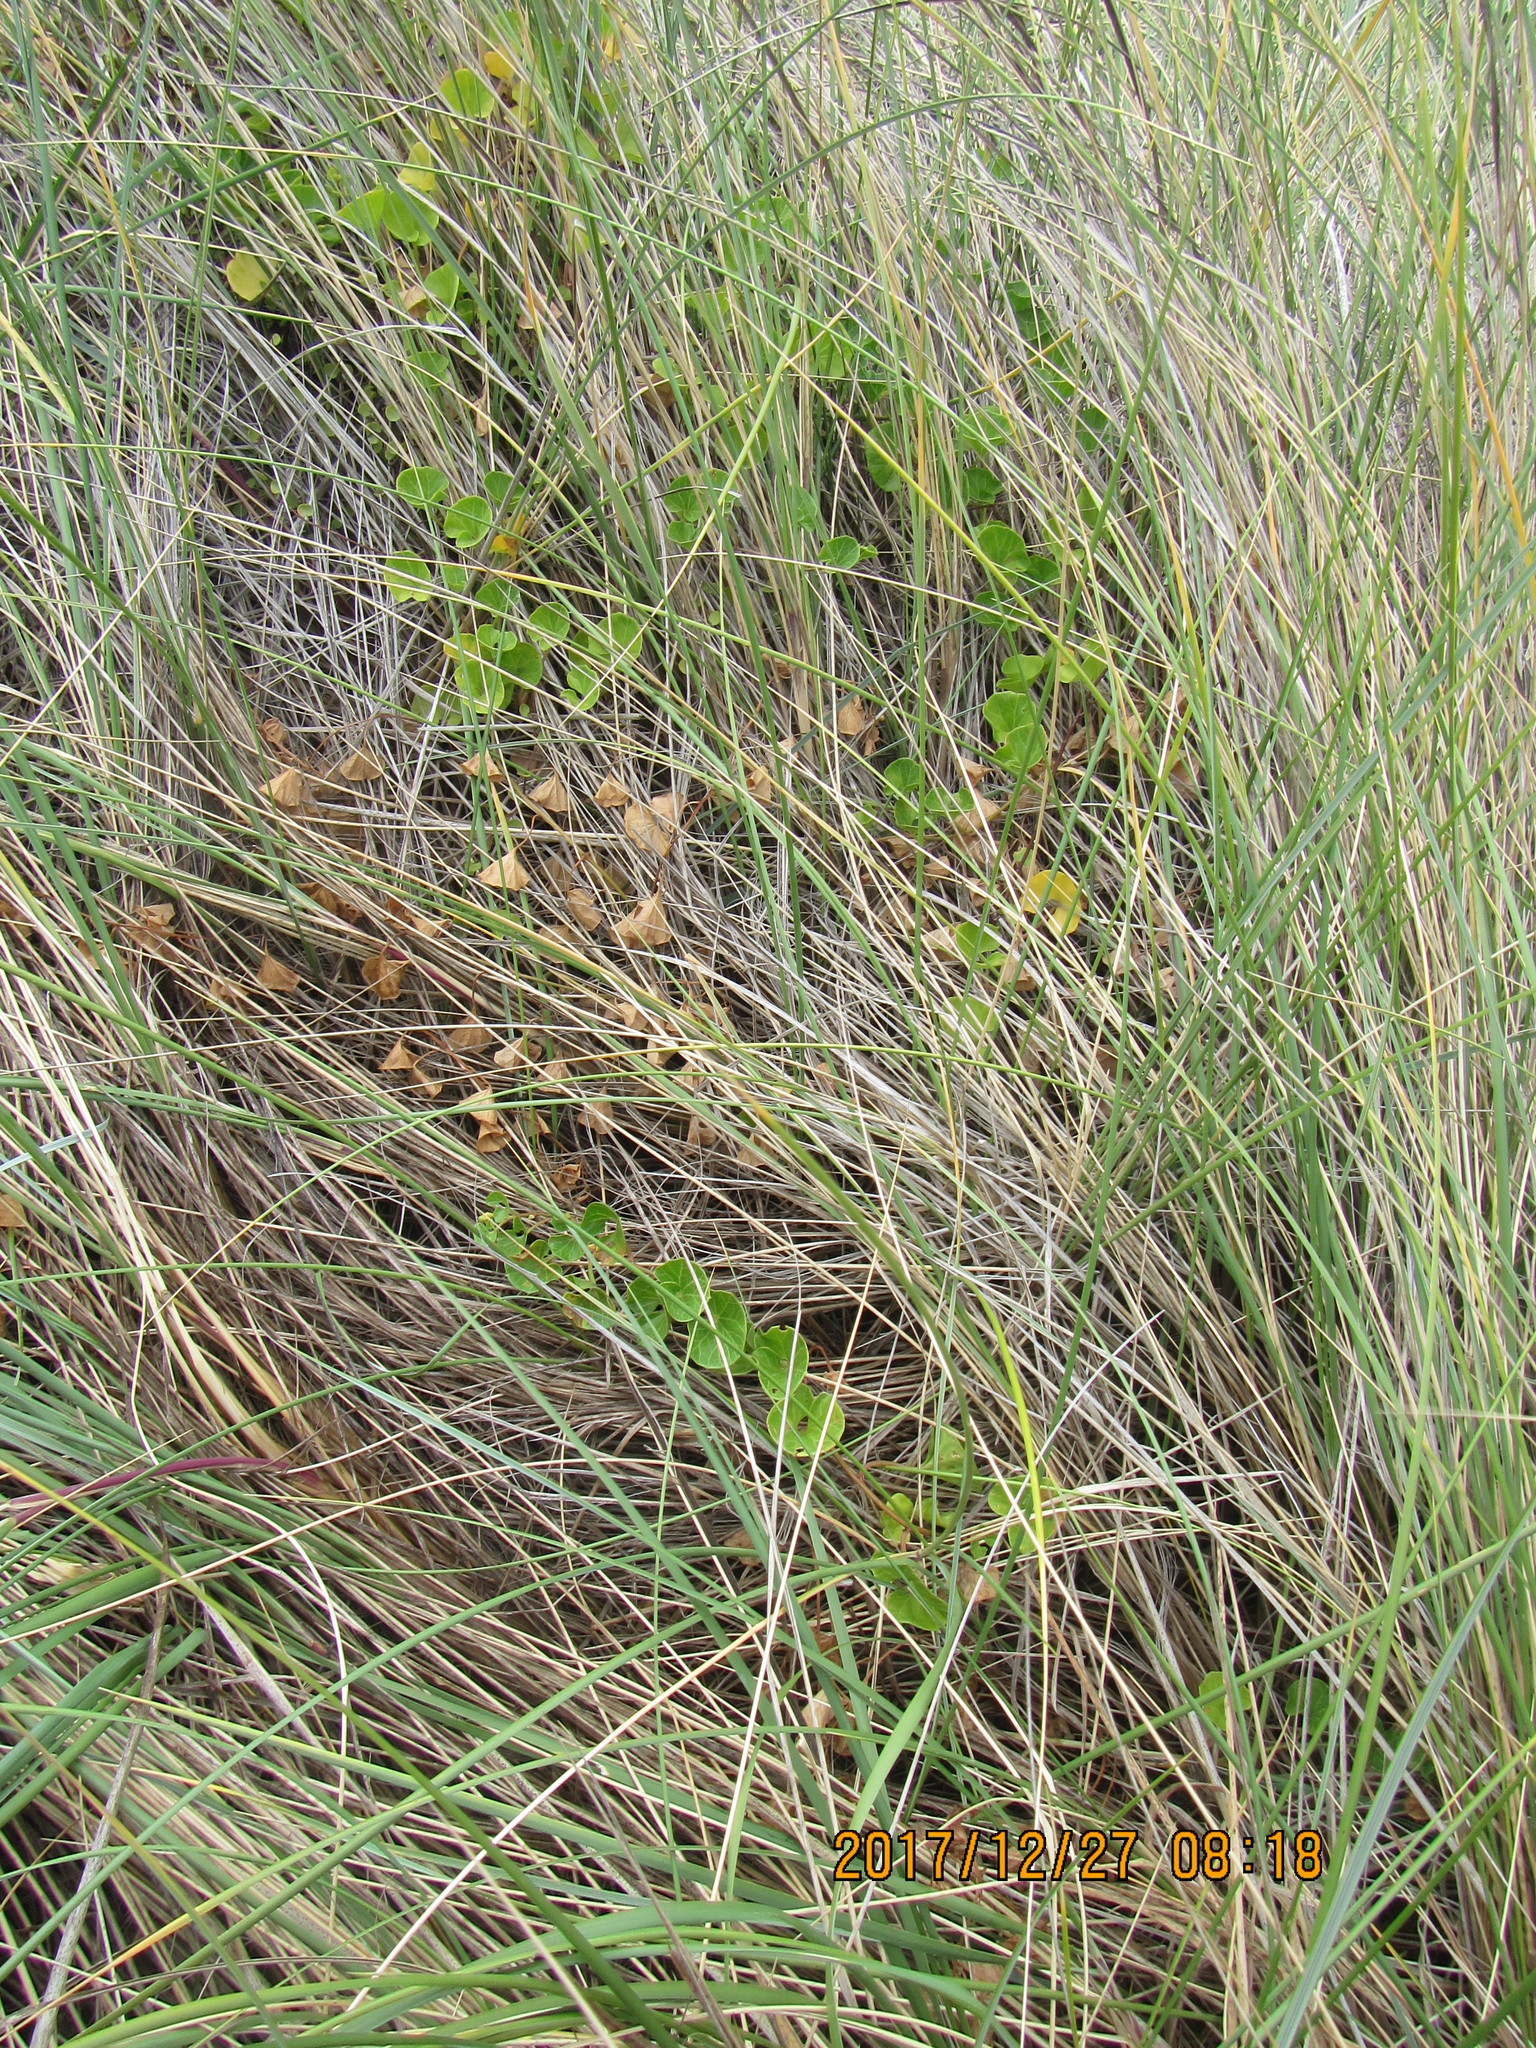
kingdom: Plantae
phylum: Tracheophyta
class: Magnoliopsida
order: Solanales
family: Convolvulaceae
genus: Calystegia
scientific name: Calystegia soldanella
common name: Sea bindweed
